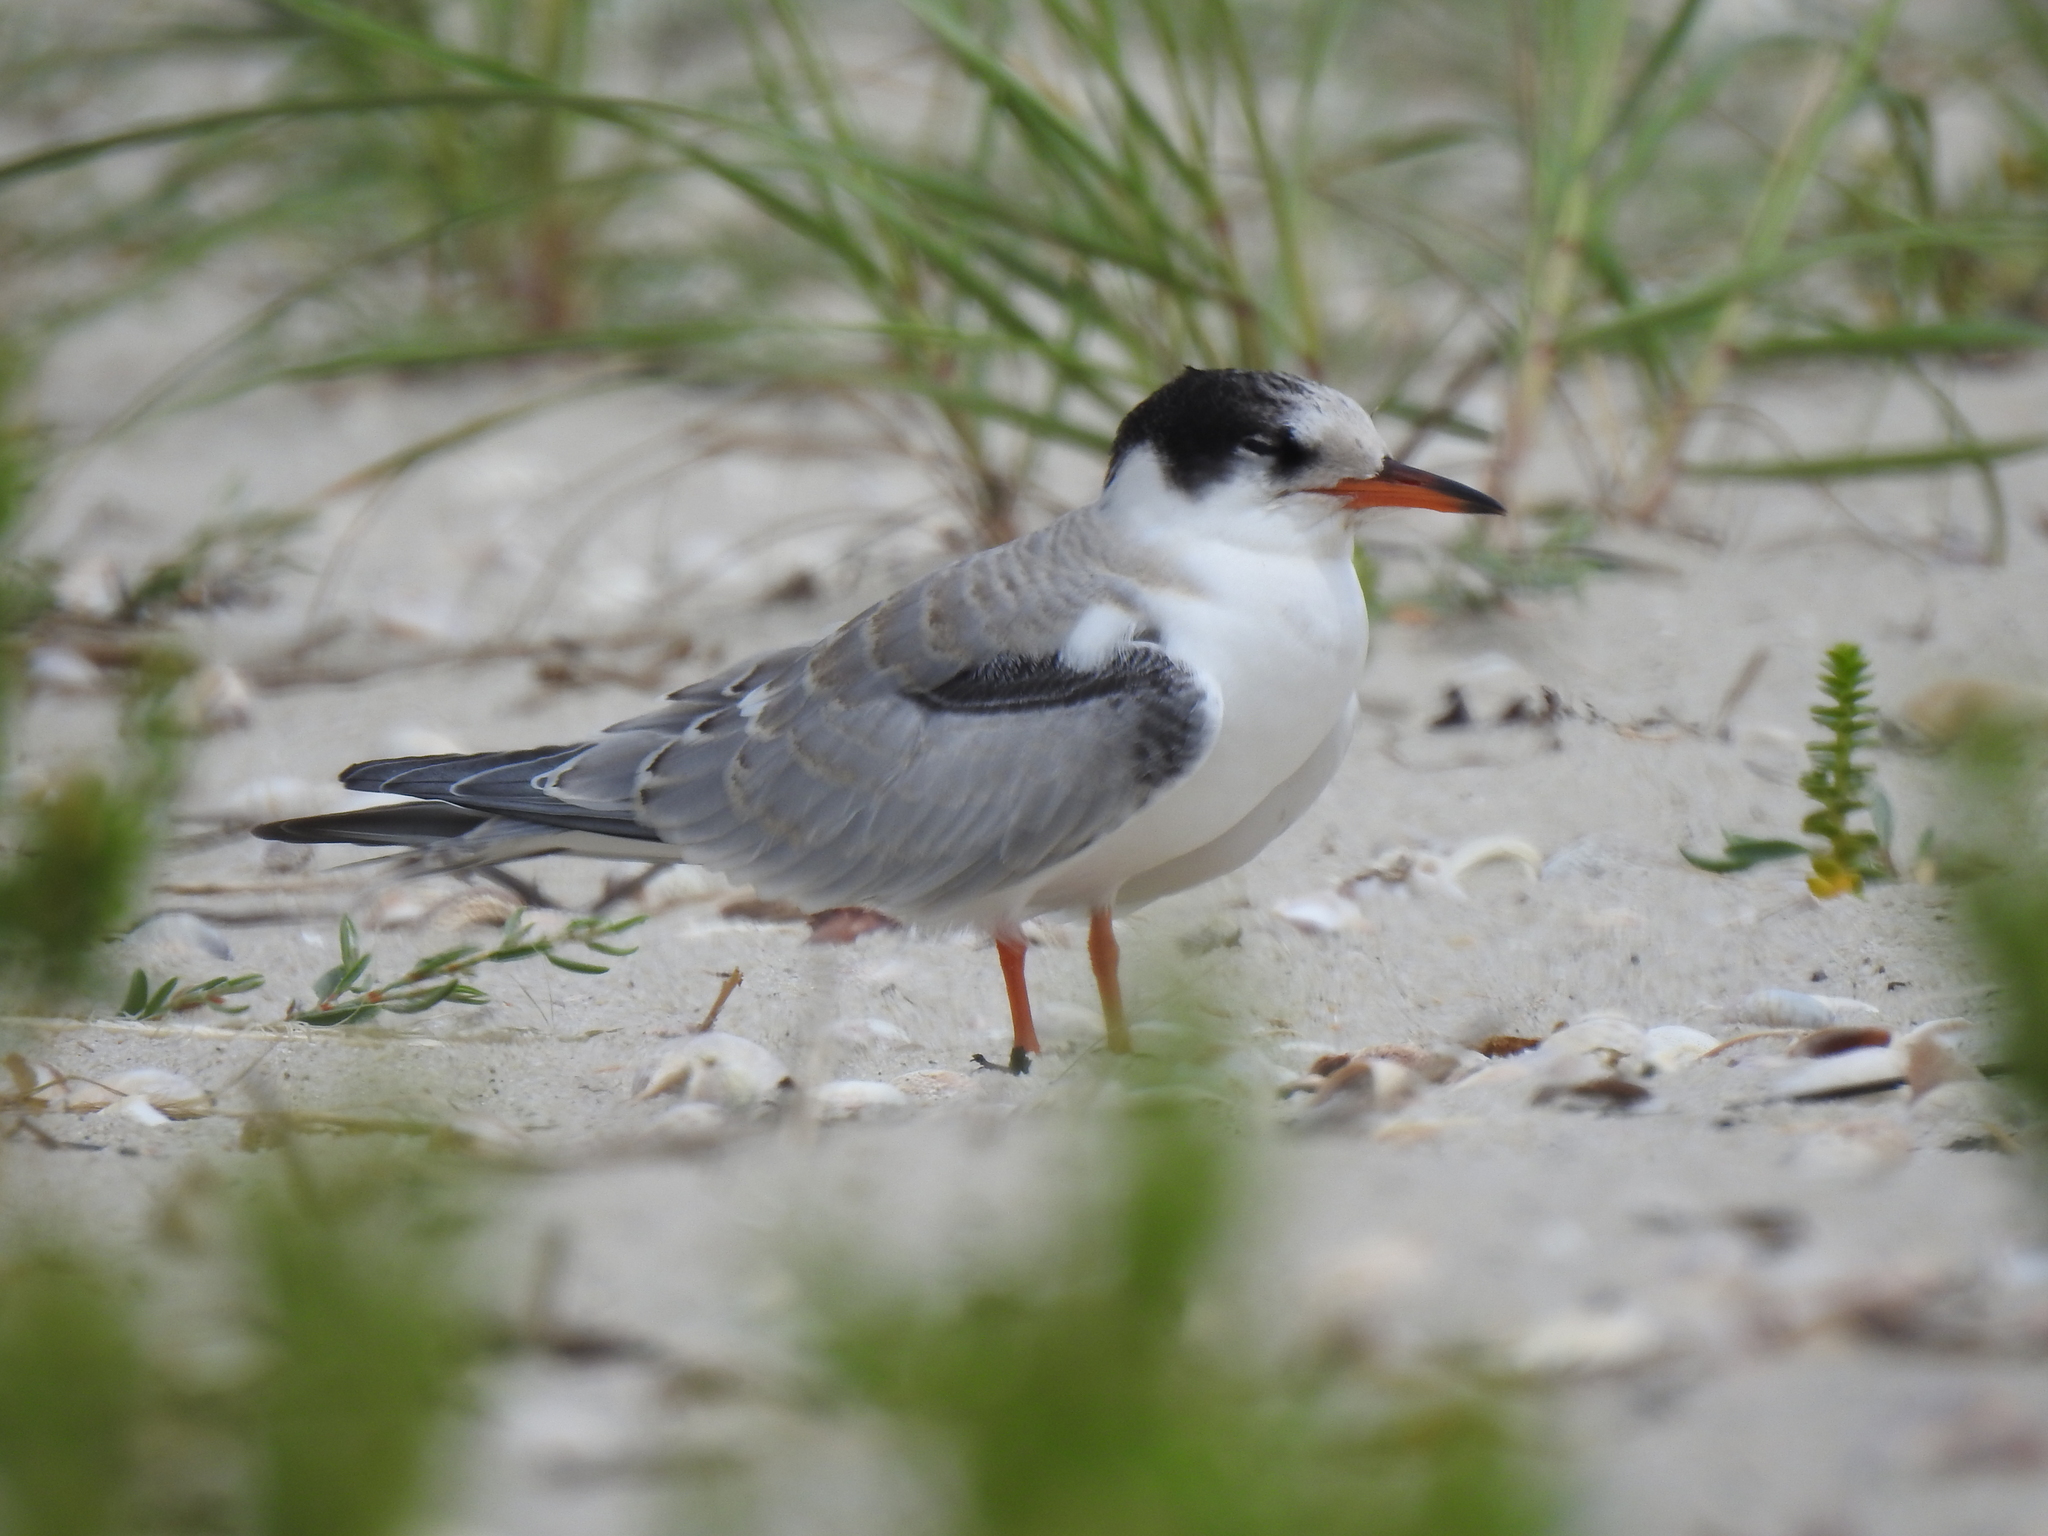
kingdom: Animalia
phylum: Chordata
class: Aves
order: Charadriiformes
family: Laridae
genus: Sterna
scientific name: Sterna hirundo
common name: Common tern
